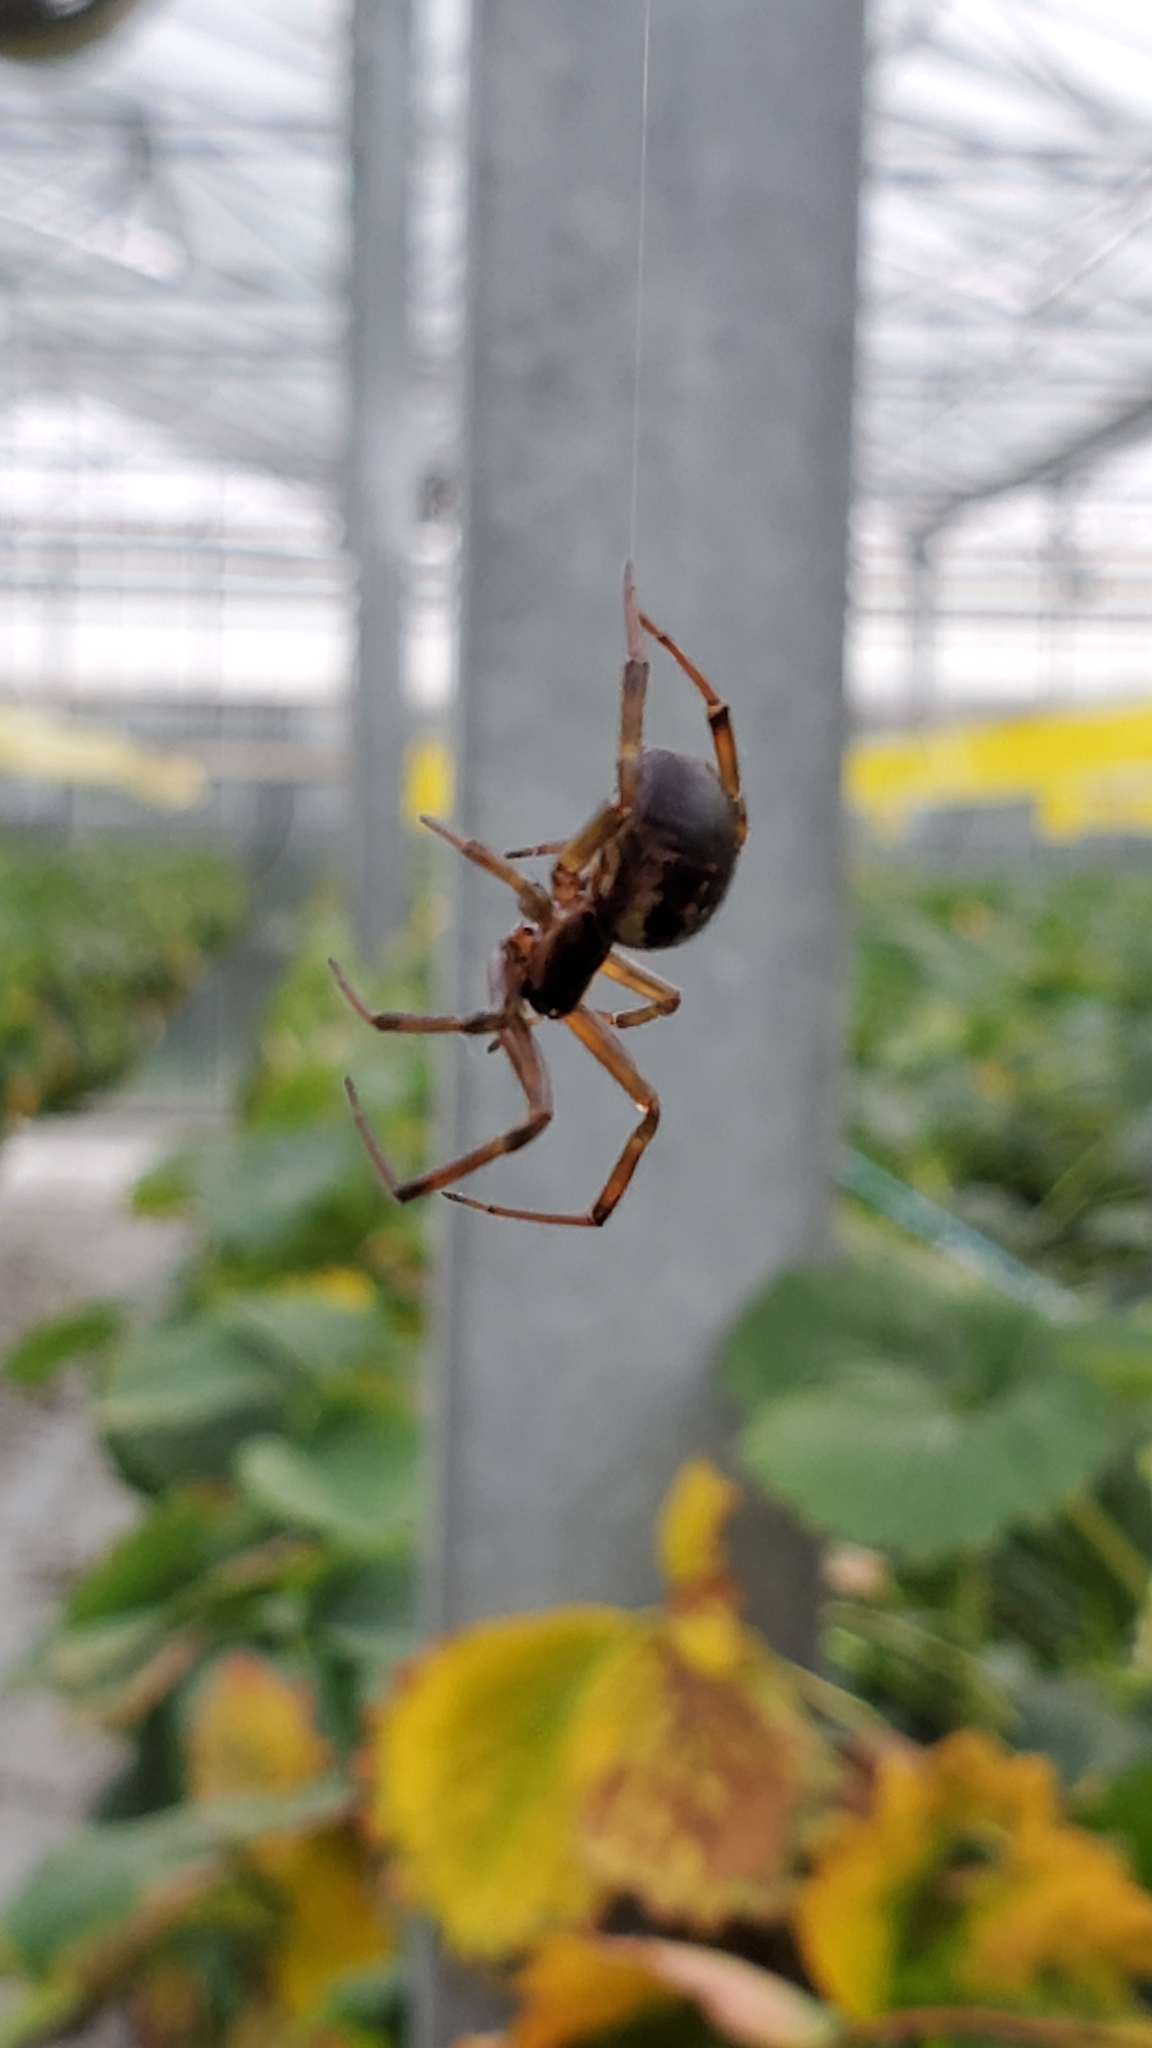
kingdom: Animalia
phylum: Arthropoda
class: Arachnida
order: Araneae
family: Theridiidae
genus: Steatoda
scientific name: Steatoda nobilis
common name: Cobweb weaver
